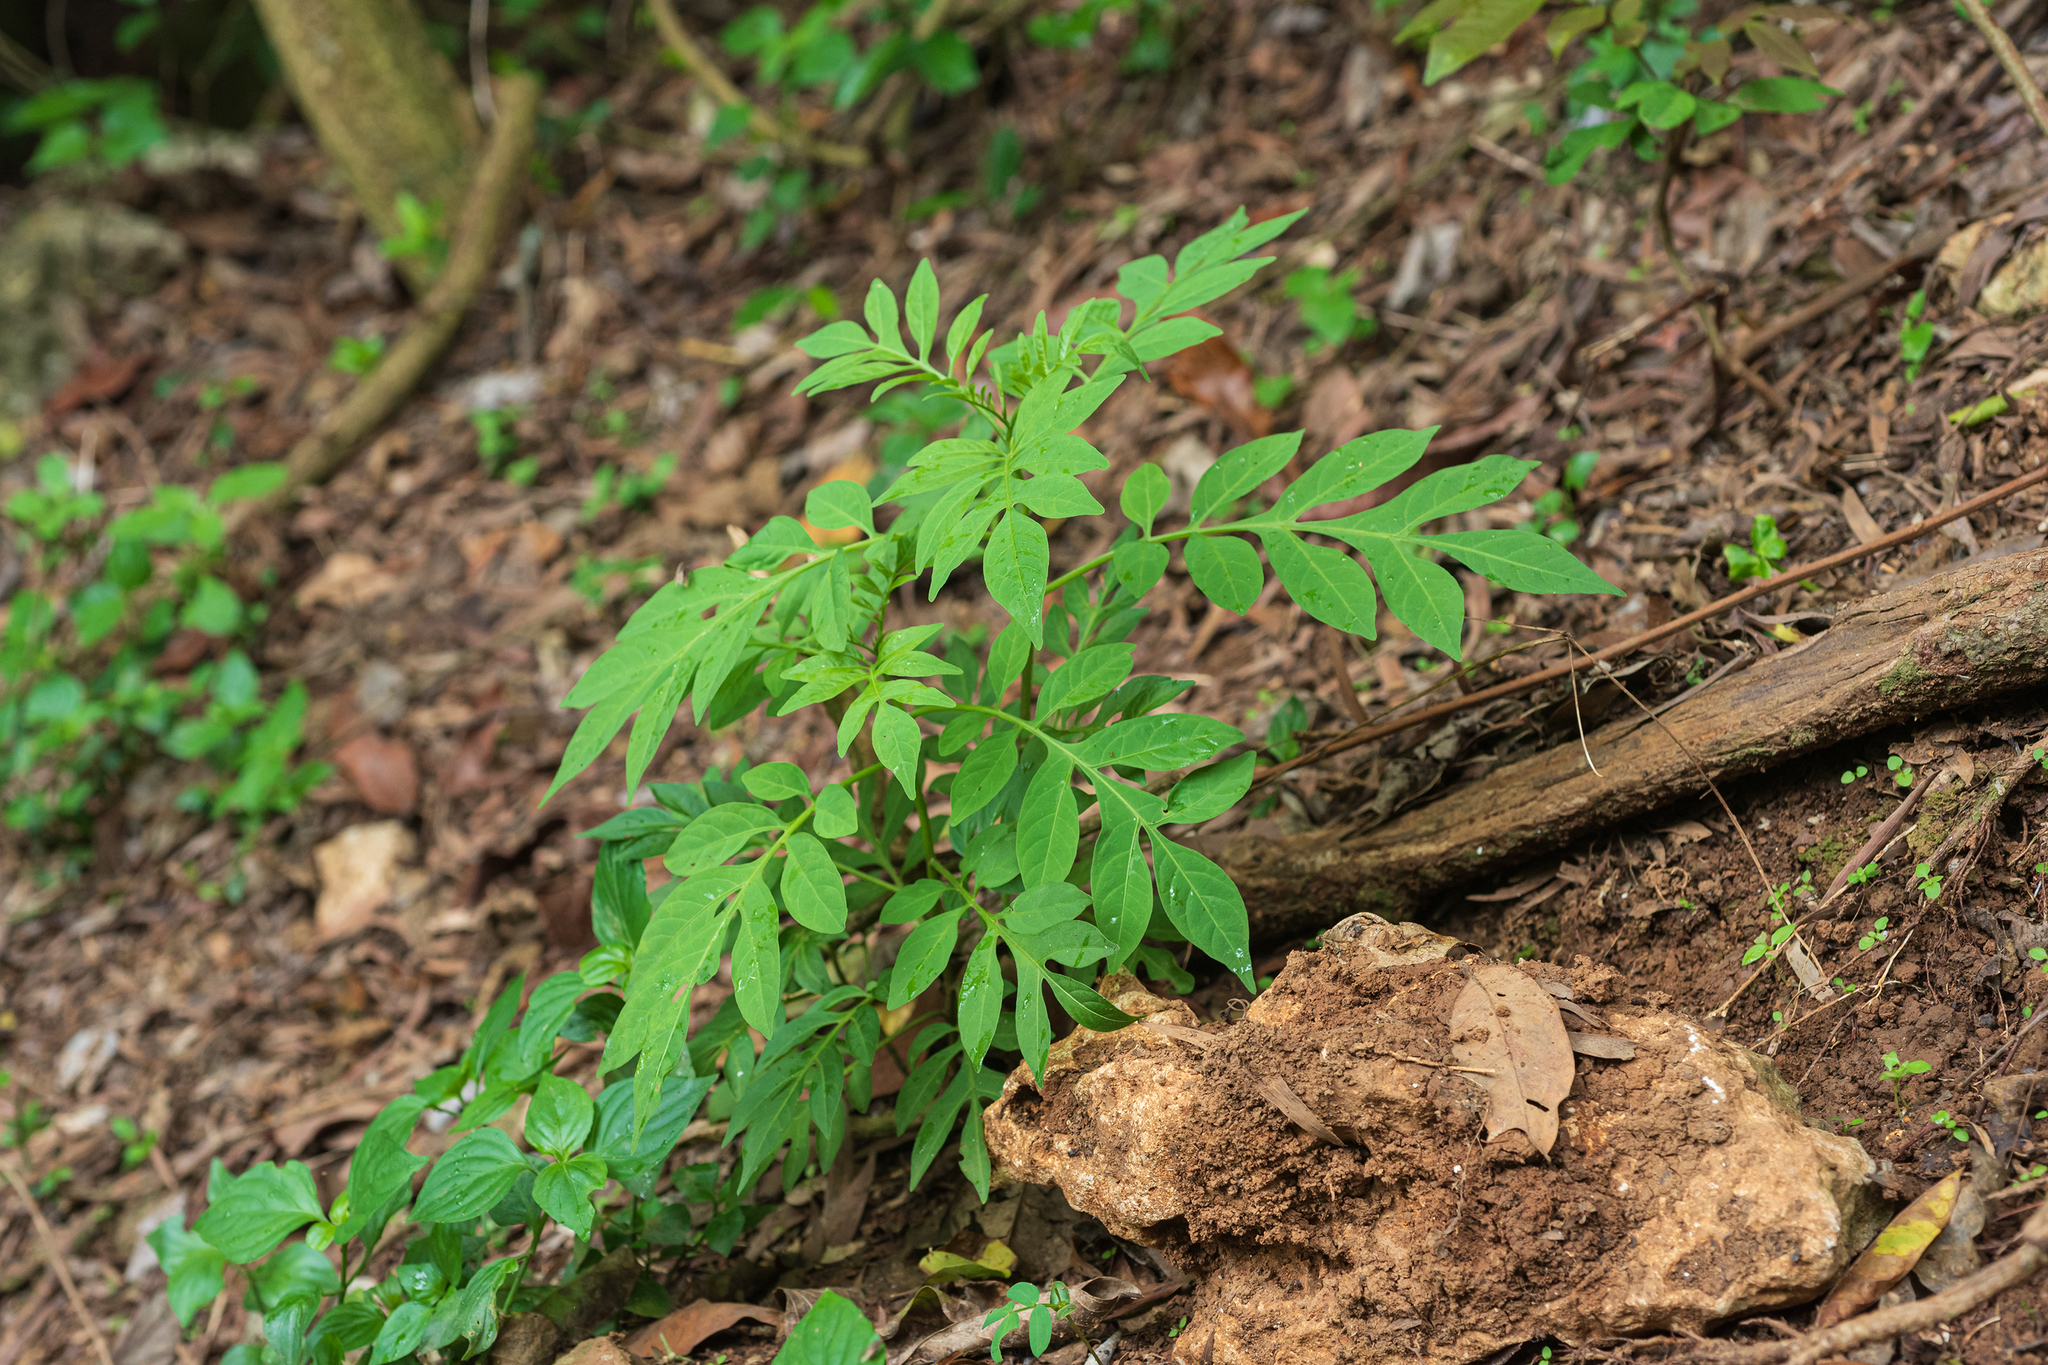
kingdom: Plantae
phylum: Tracheophyta
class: Magnoliopsida
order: Solanales
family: Solanaceae
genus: Solanum
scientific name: Solanum seaforthianum
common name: Brazilian nightshade
